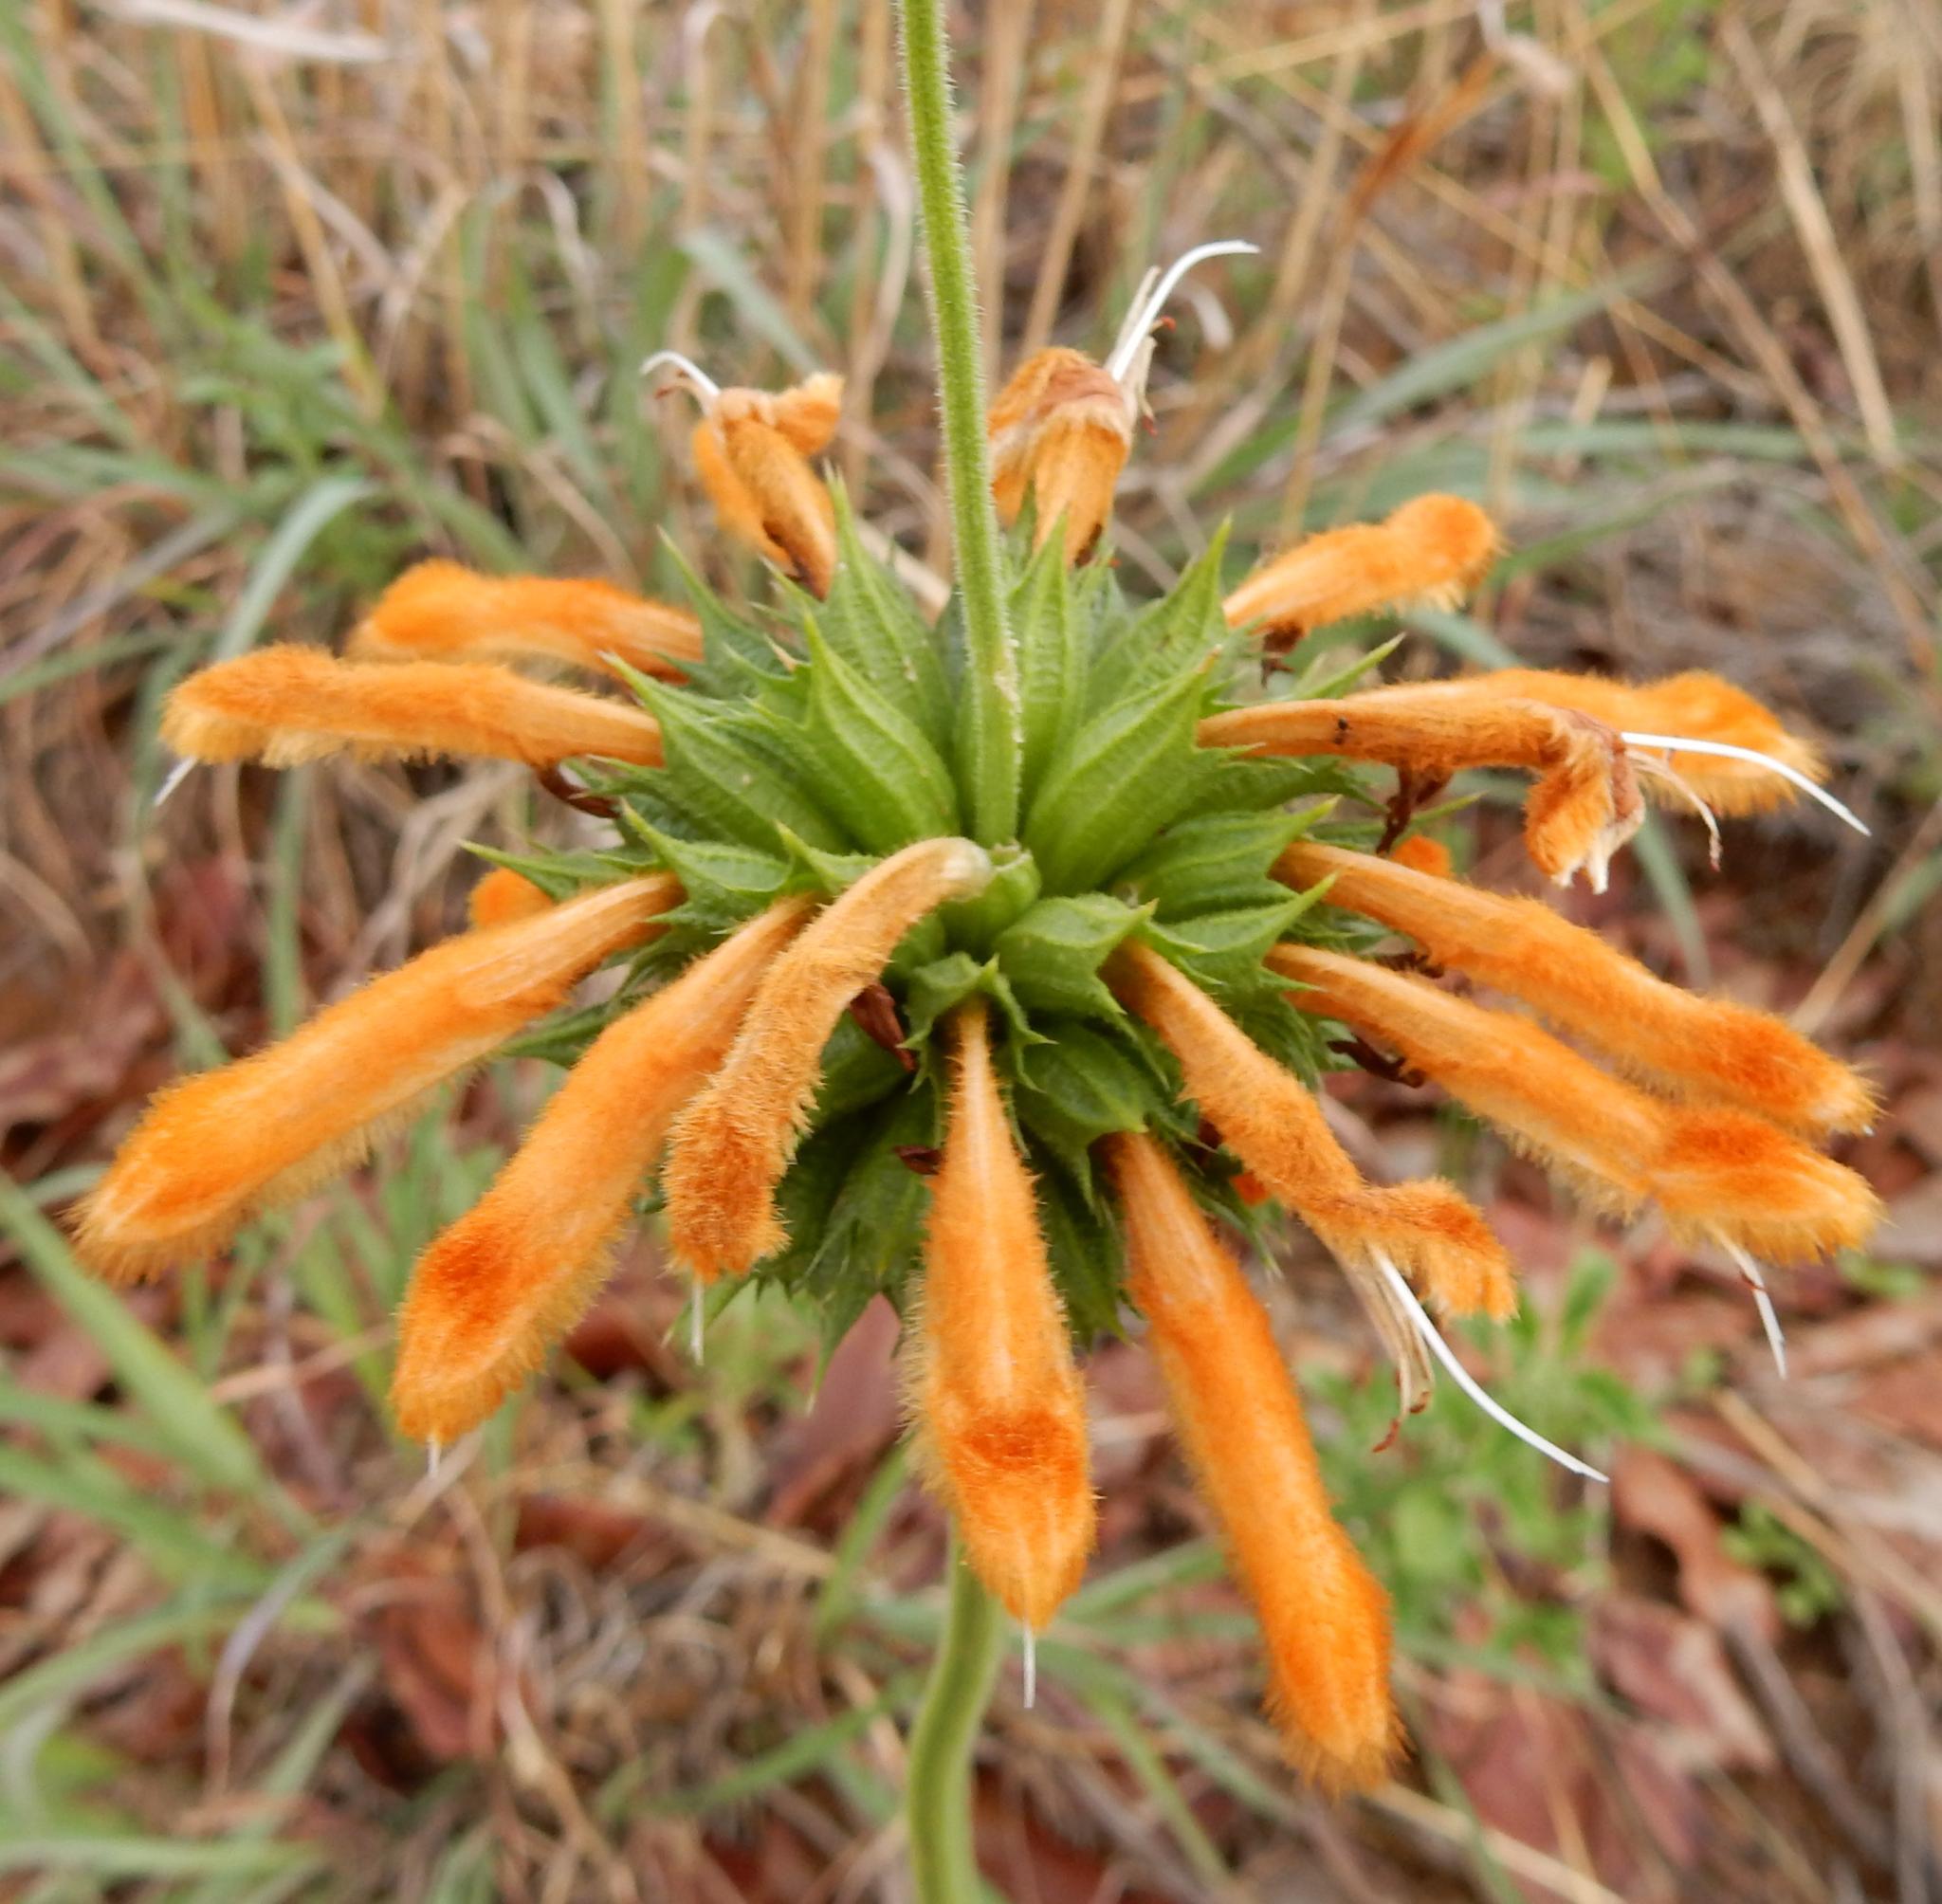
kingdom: Plantae
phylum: Tracheophyta
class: Magnoliopsida
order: Lamiales
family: Lamiaceae
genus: Leonotis
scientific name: Leonotis ocymifolia
